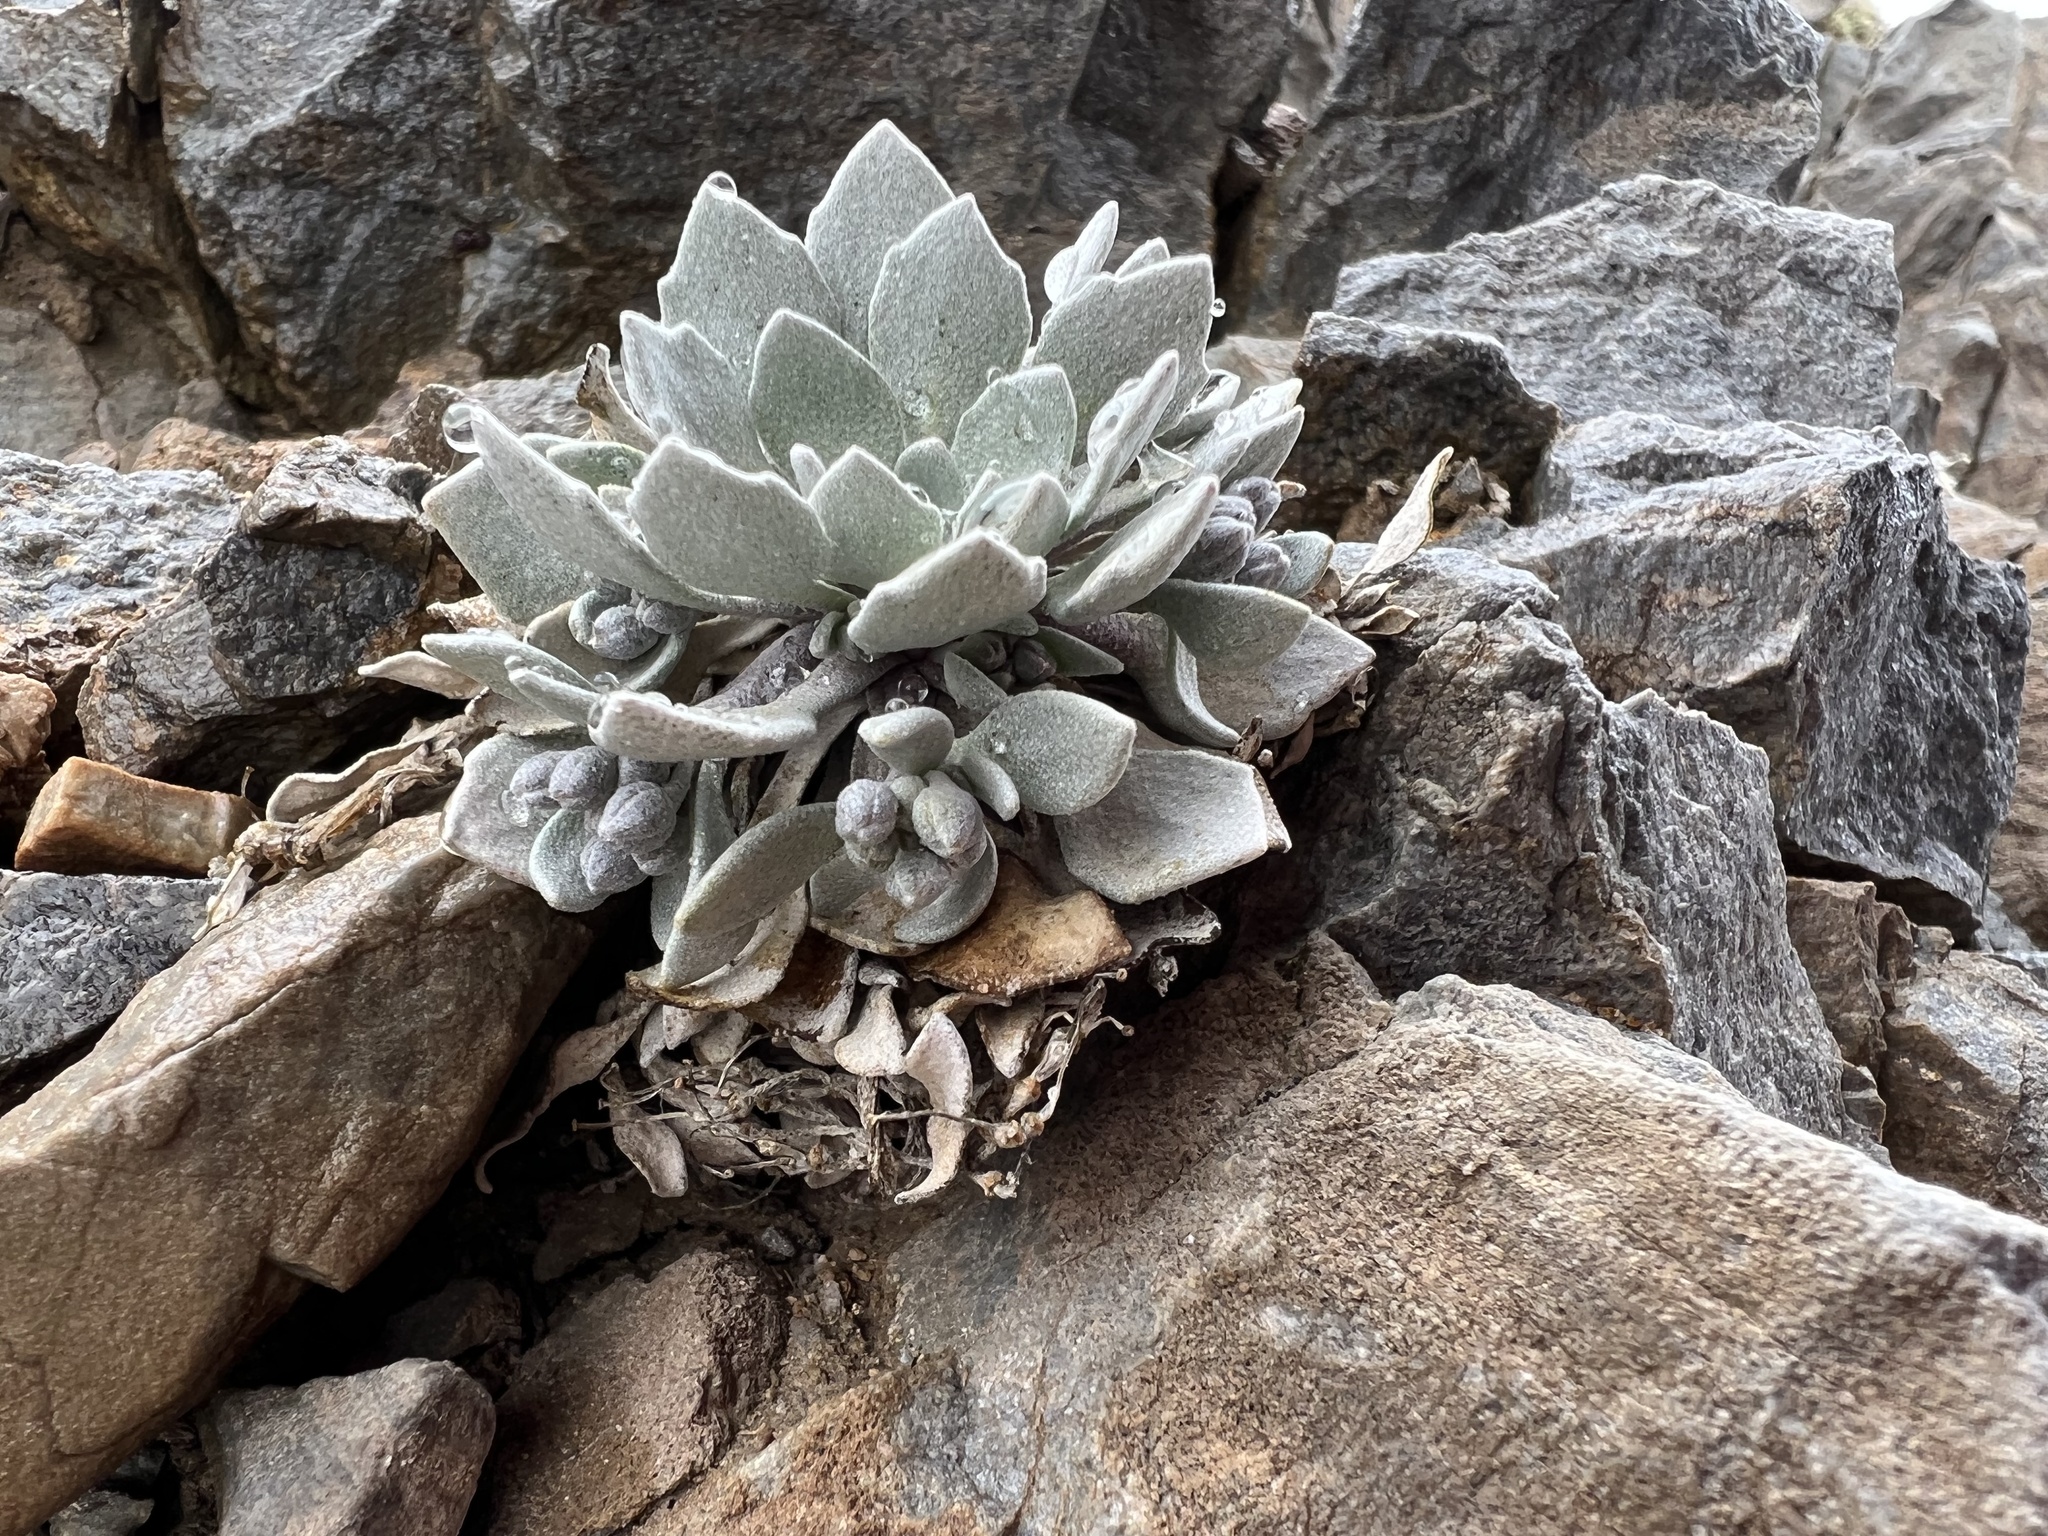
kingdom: Plantae
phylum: Tracheophyta
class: Magnoliopsida
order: Brassicales
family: Brassicaceae
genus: Physaria
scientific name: Physaria alpina
